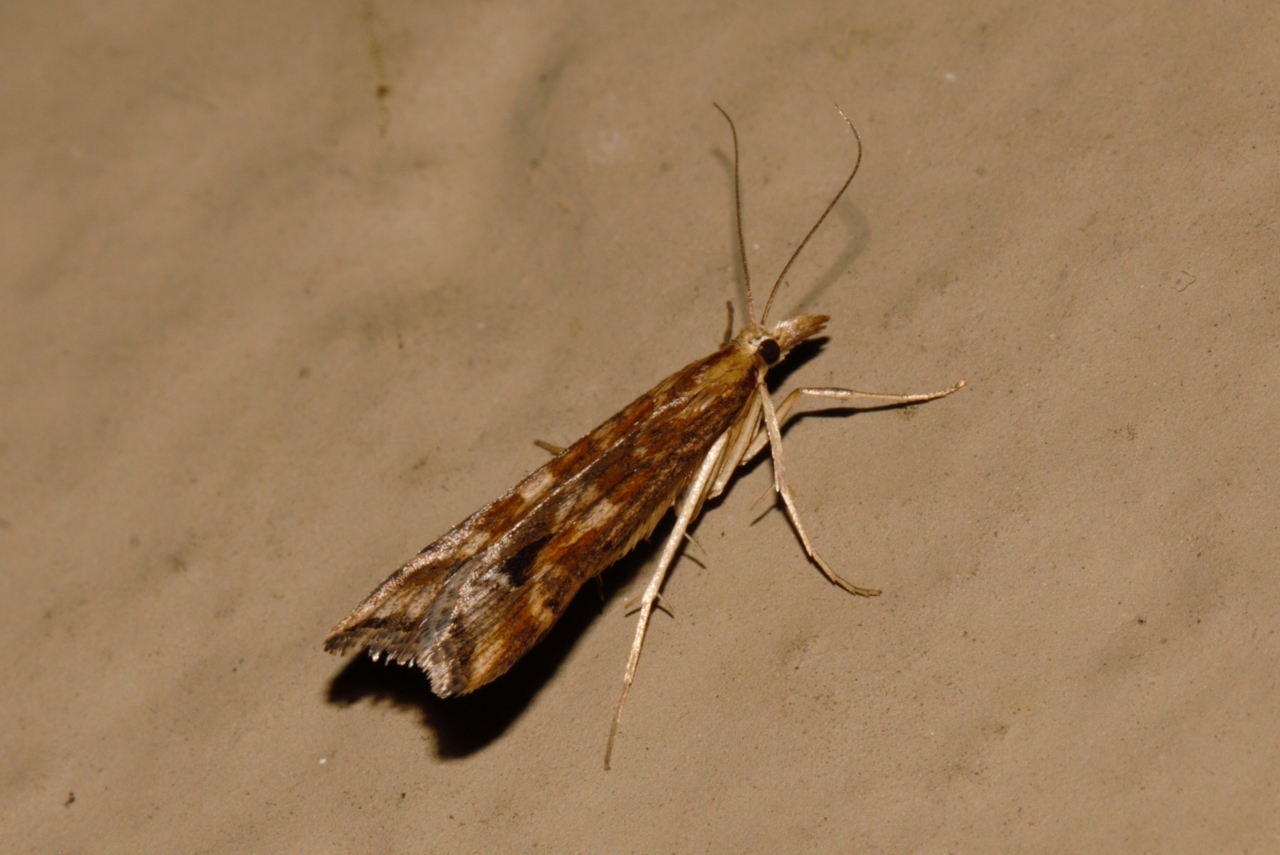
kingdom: Animalia
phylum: Arthropoda
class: Insecta
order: Lepidoptera
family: Crambidae
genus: Diasemia
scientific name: Diasemia monostigma
